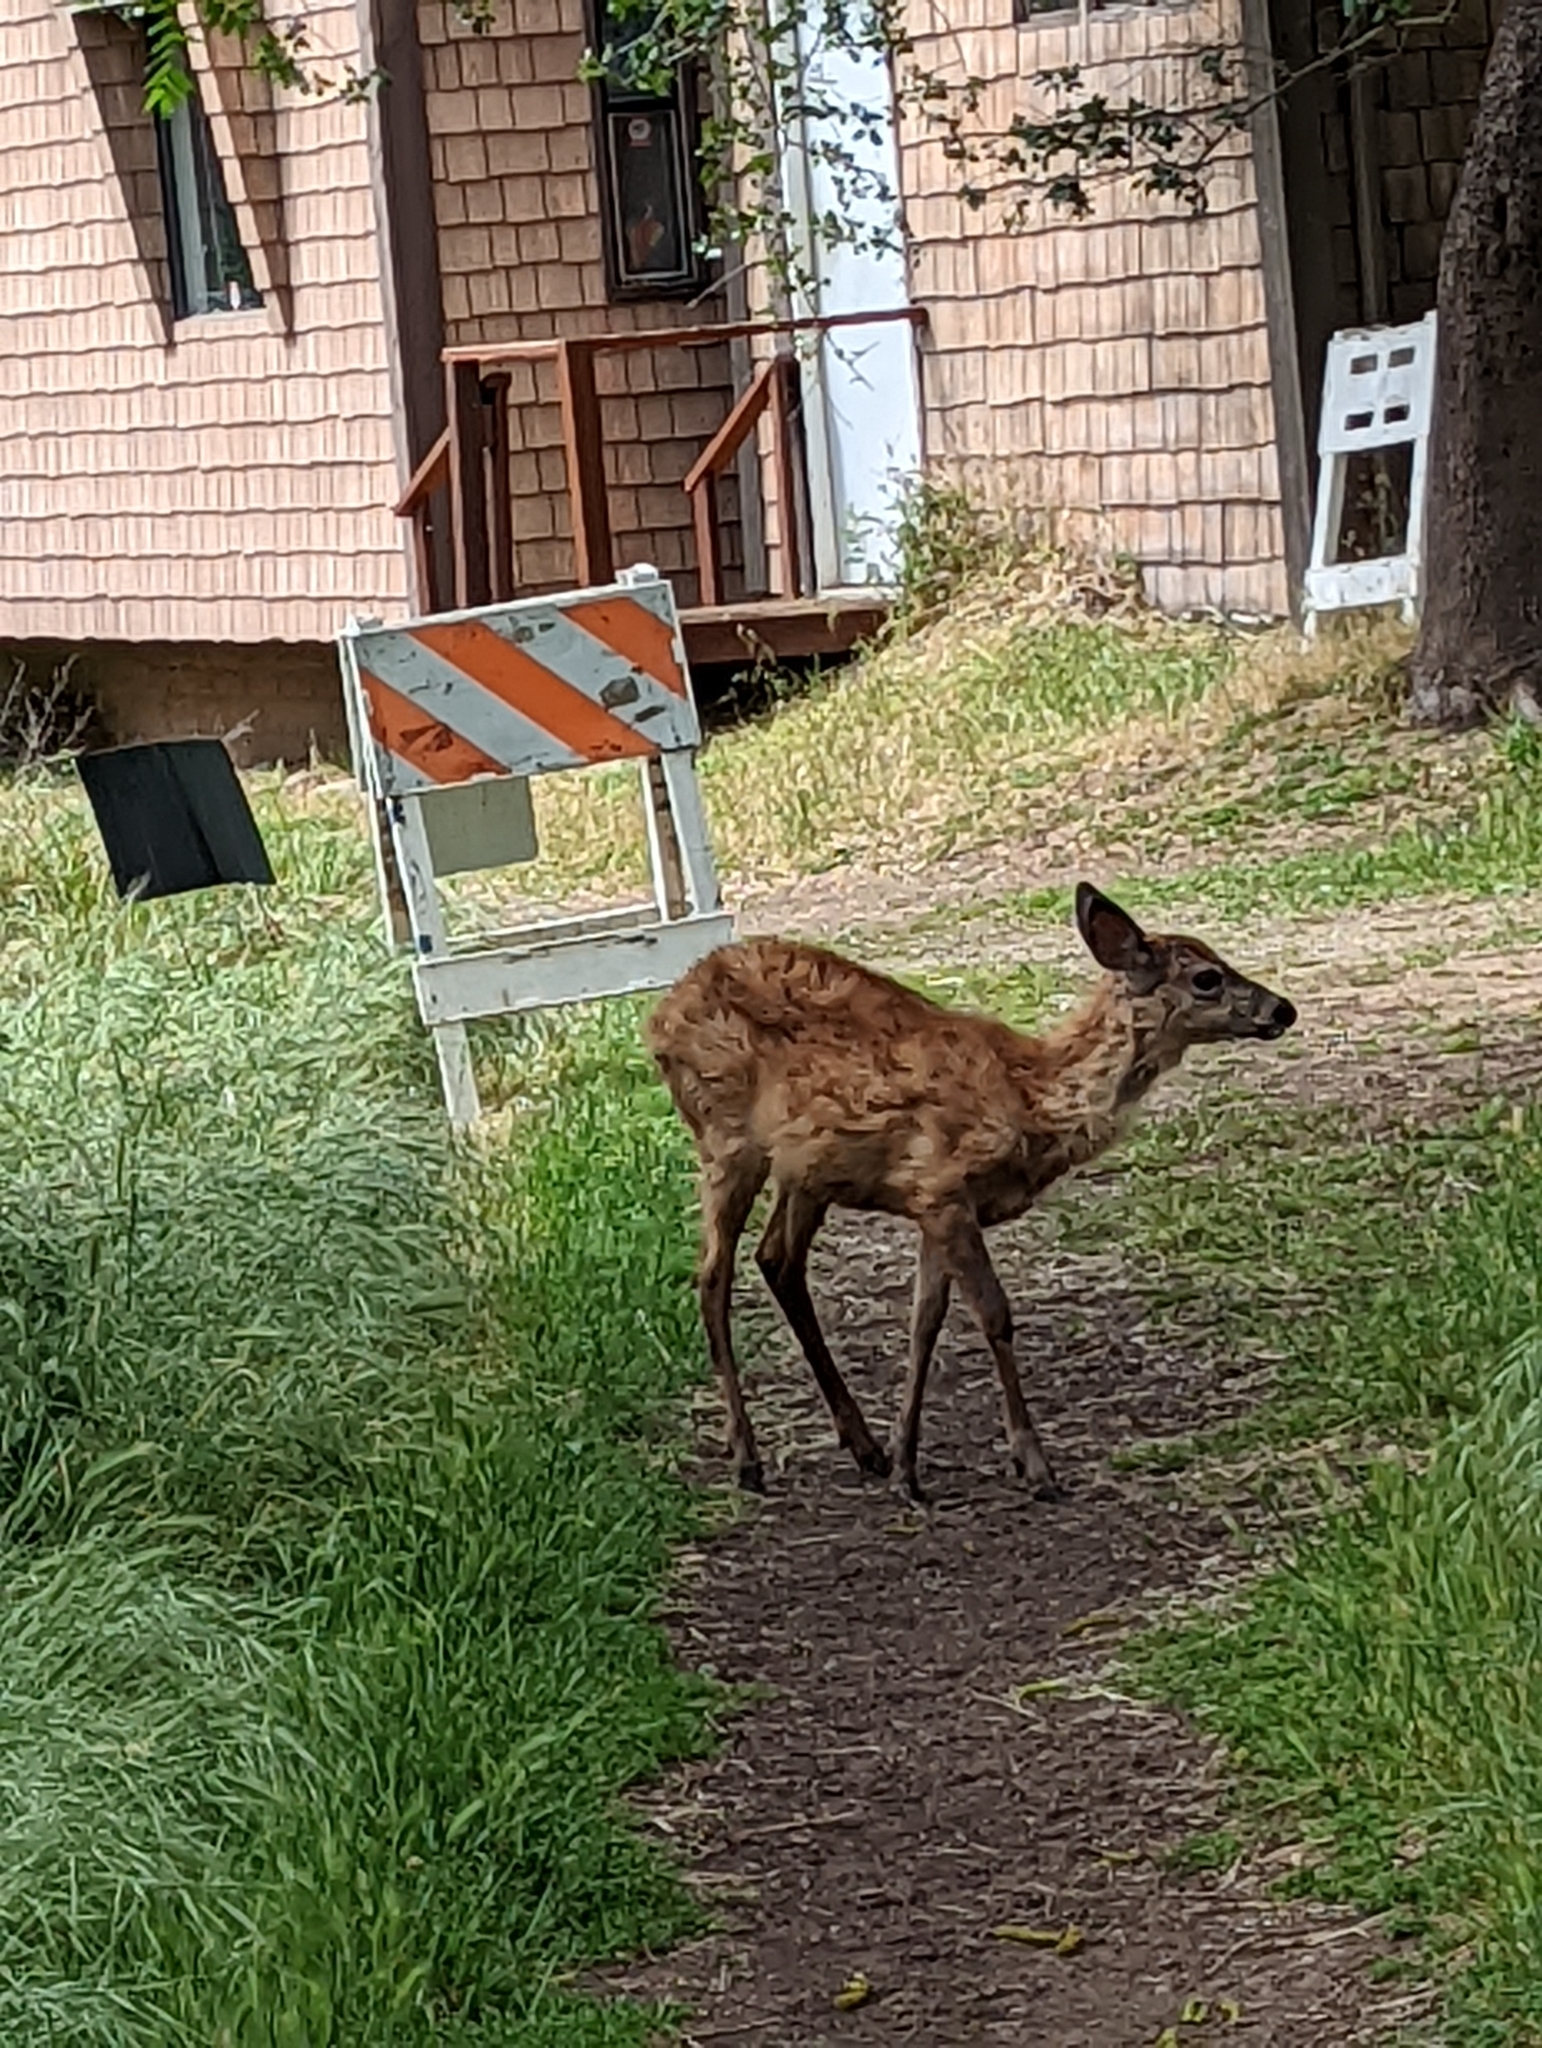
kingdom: Animalia
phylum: Chordata
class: Mammalia
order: Artiodactyla
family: Cervidae
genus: Odocoileus
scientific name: Odocoileus hemionus
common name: Mule deer
